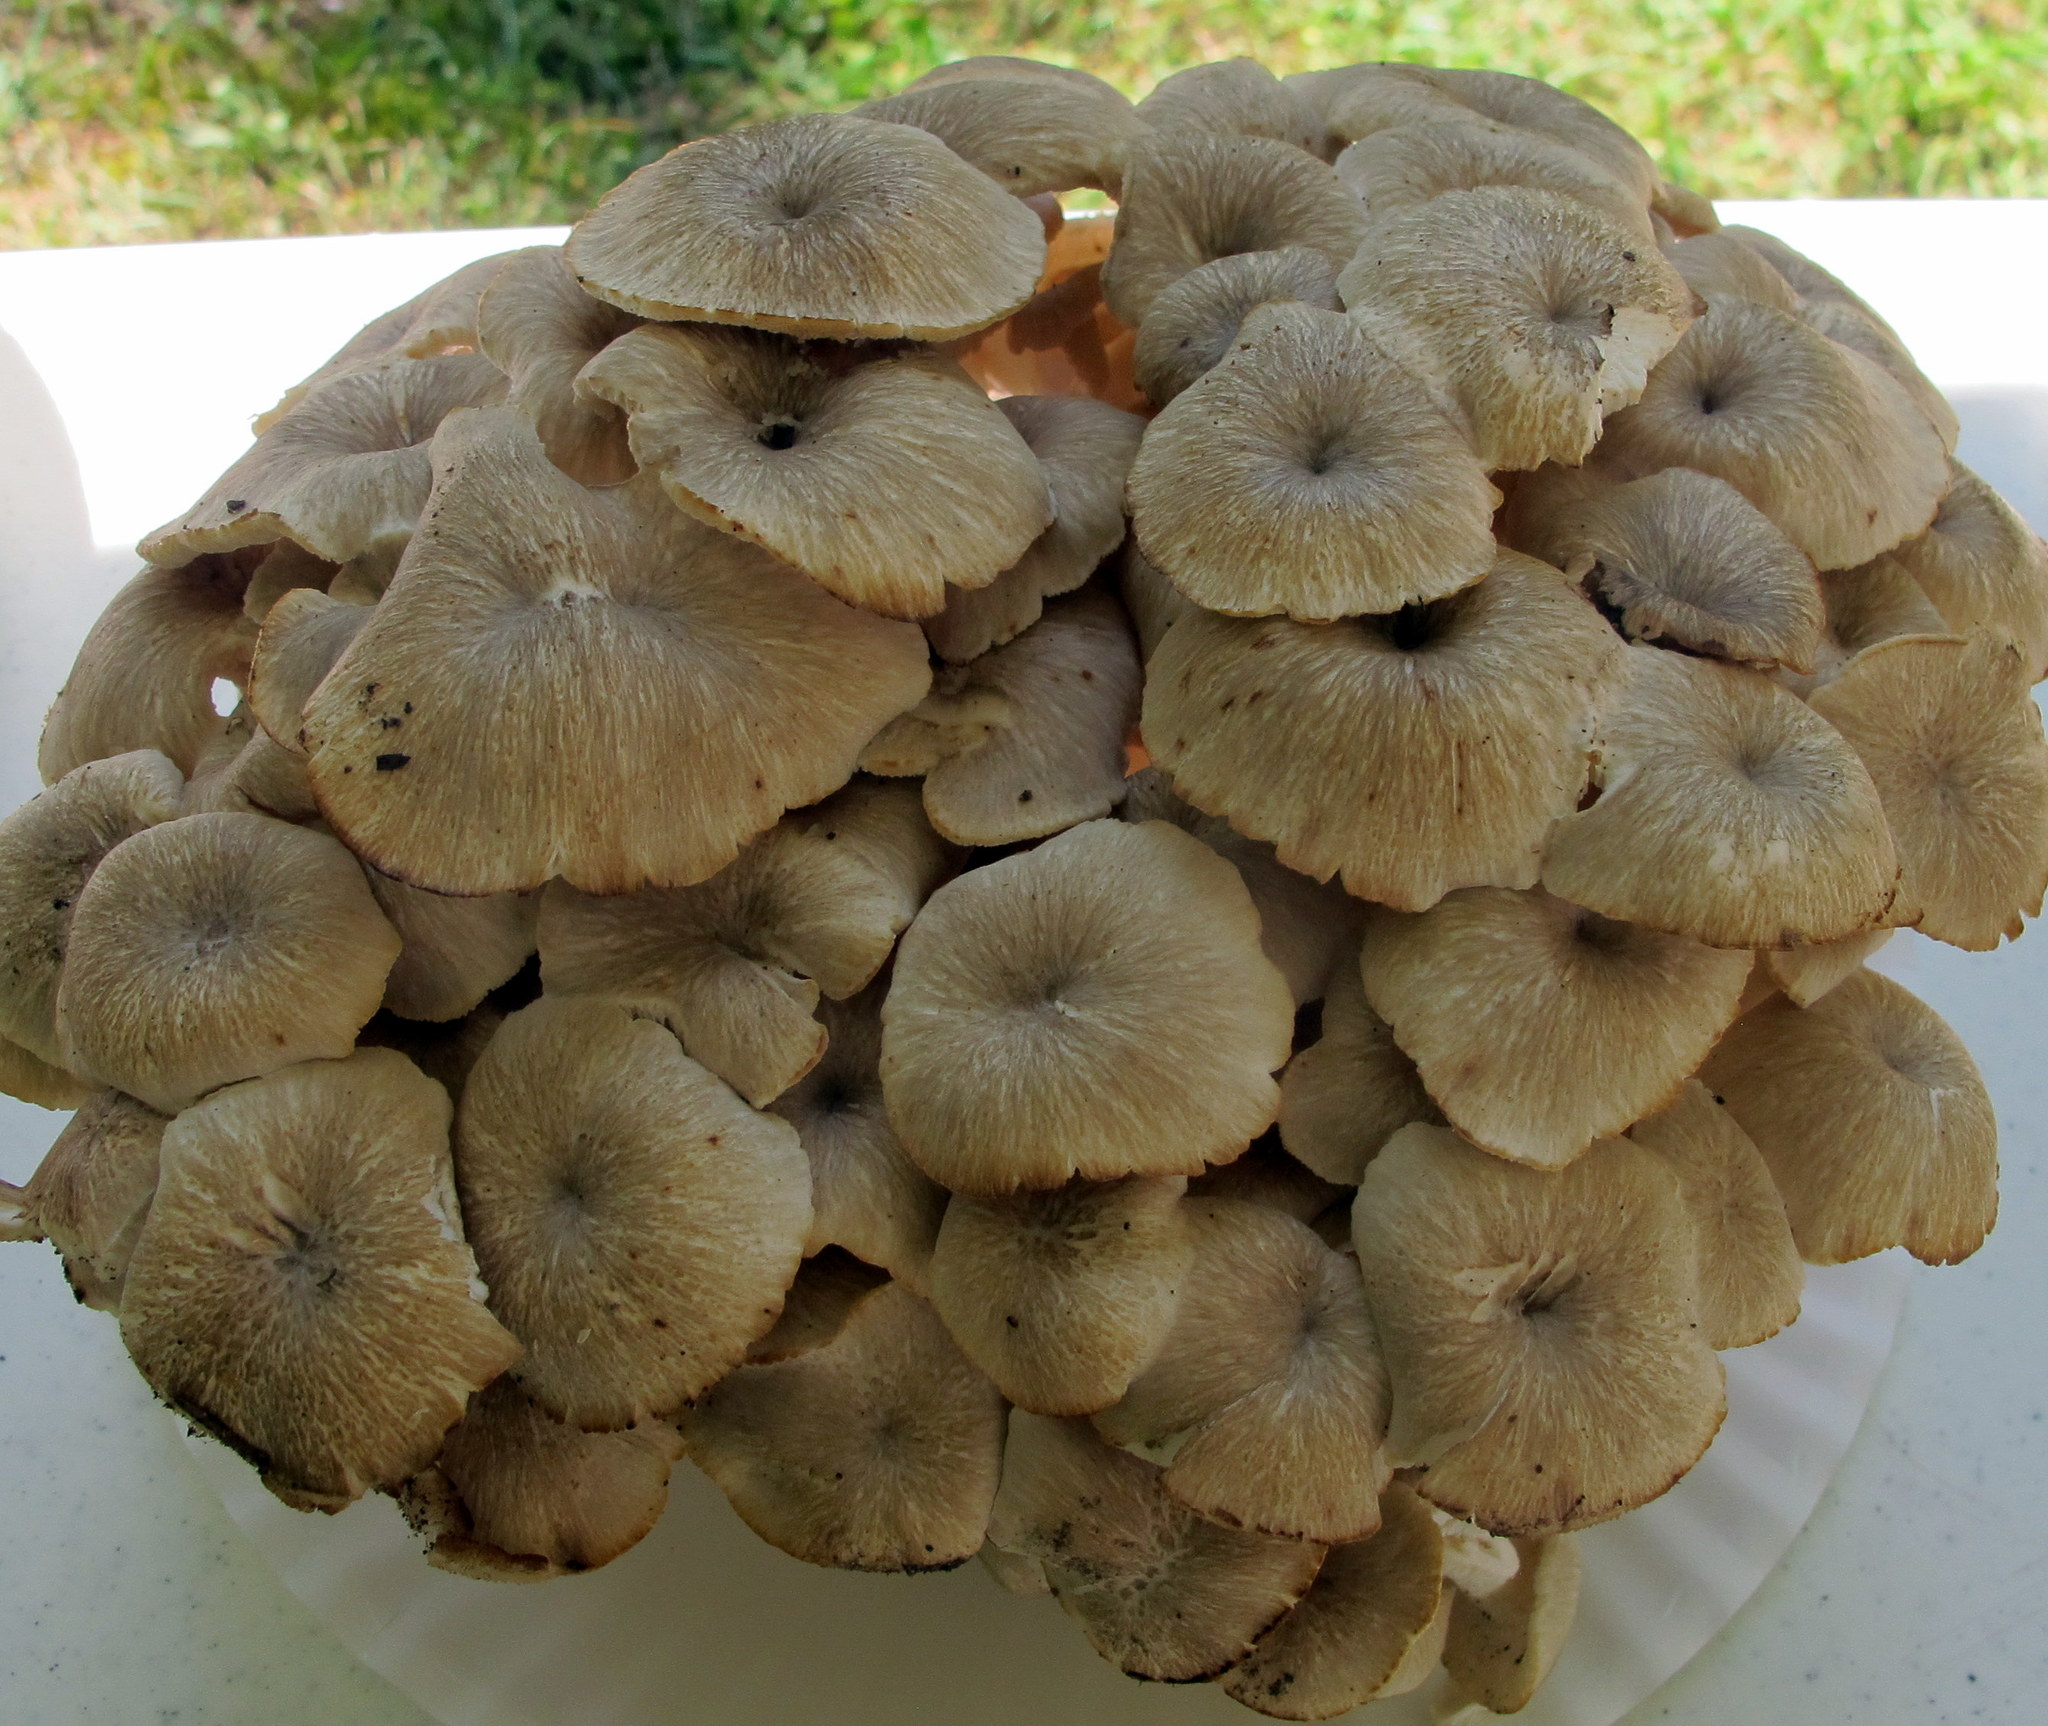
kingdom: Fungi
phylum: Basidiomycota
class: Agaricomycetes
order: Polyporales
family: Polyporaceae
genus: Polyporus
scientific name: Polyporus umbellatus
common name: Umbrella polypore
